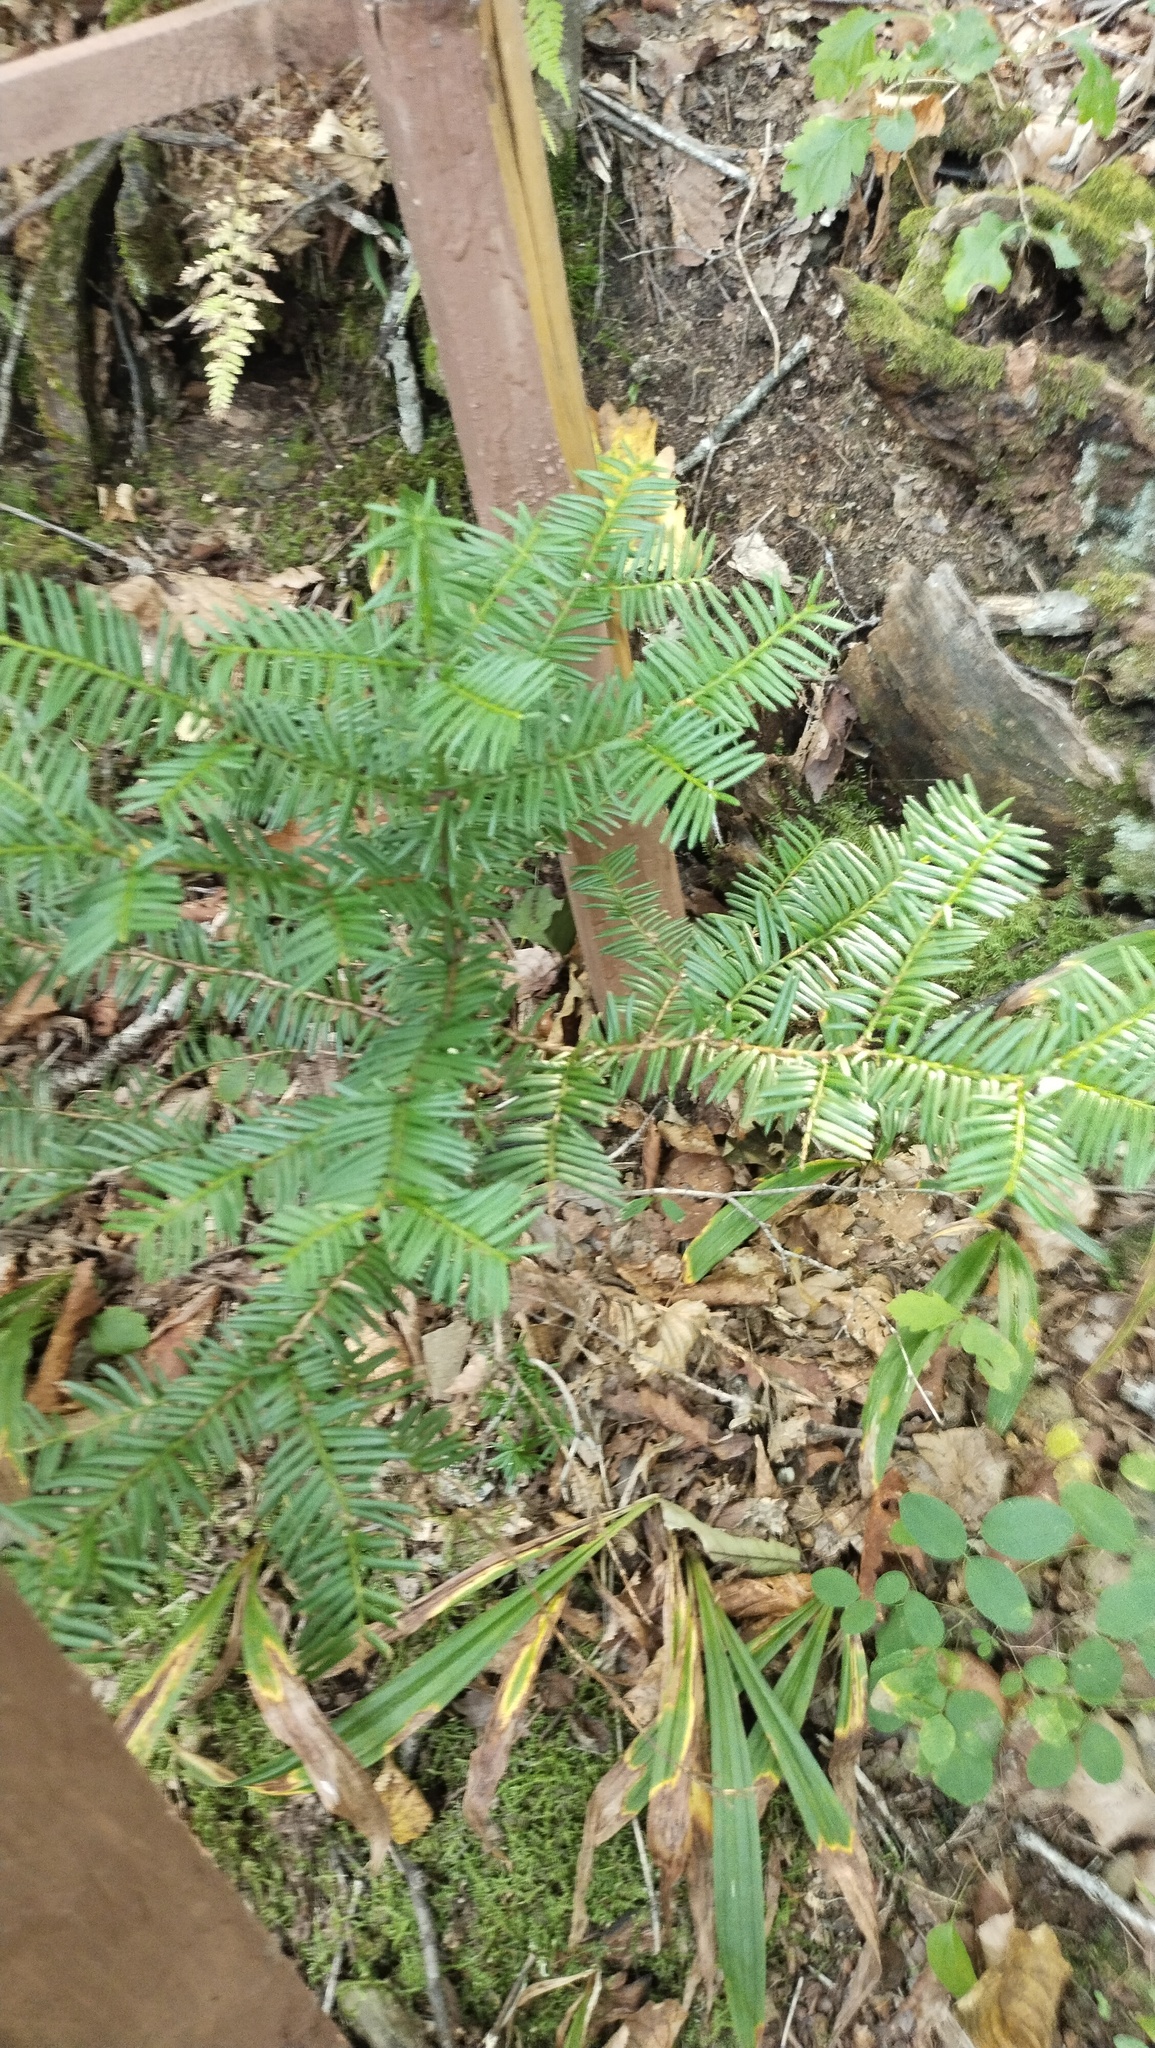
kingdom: Plantae
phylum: Tracheophyta
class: Pinopsida
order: Pinales
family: Taxaceae
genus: Taxus
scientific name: Taxus cuspidata
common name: Japanese yew
